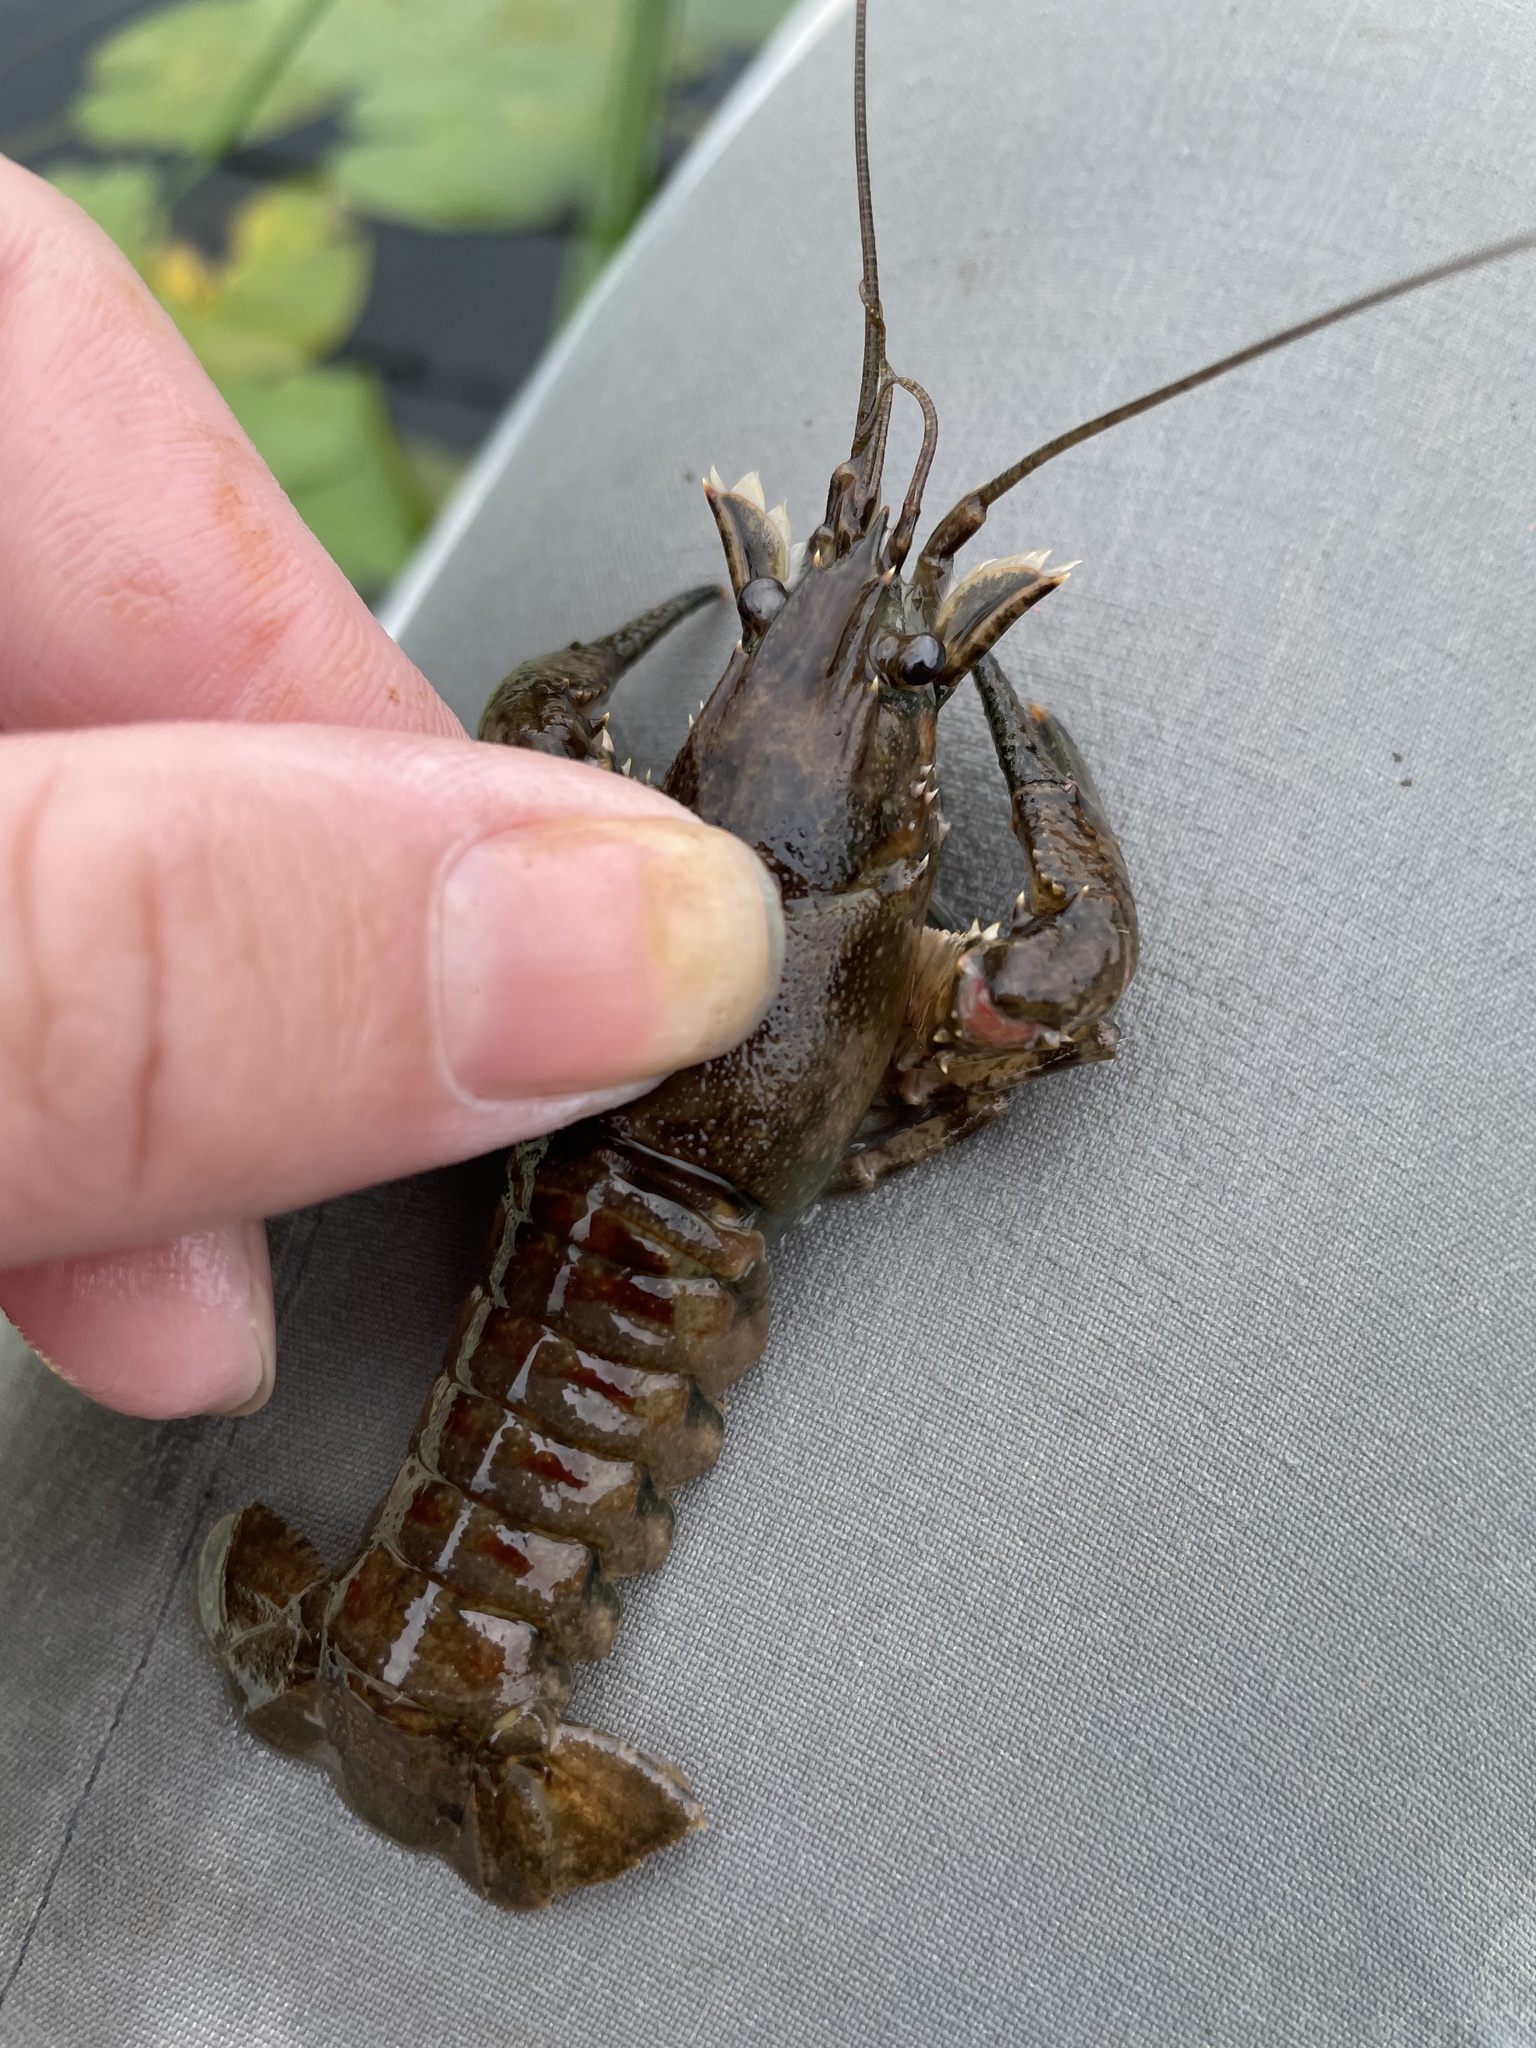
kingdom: Animalia
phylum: Arthropoda
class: Malacostraca
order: Decapoda
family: Cambaridae
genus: Faxonius
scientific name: Faxonius limosus
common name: American crayfish
